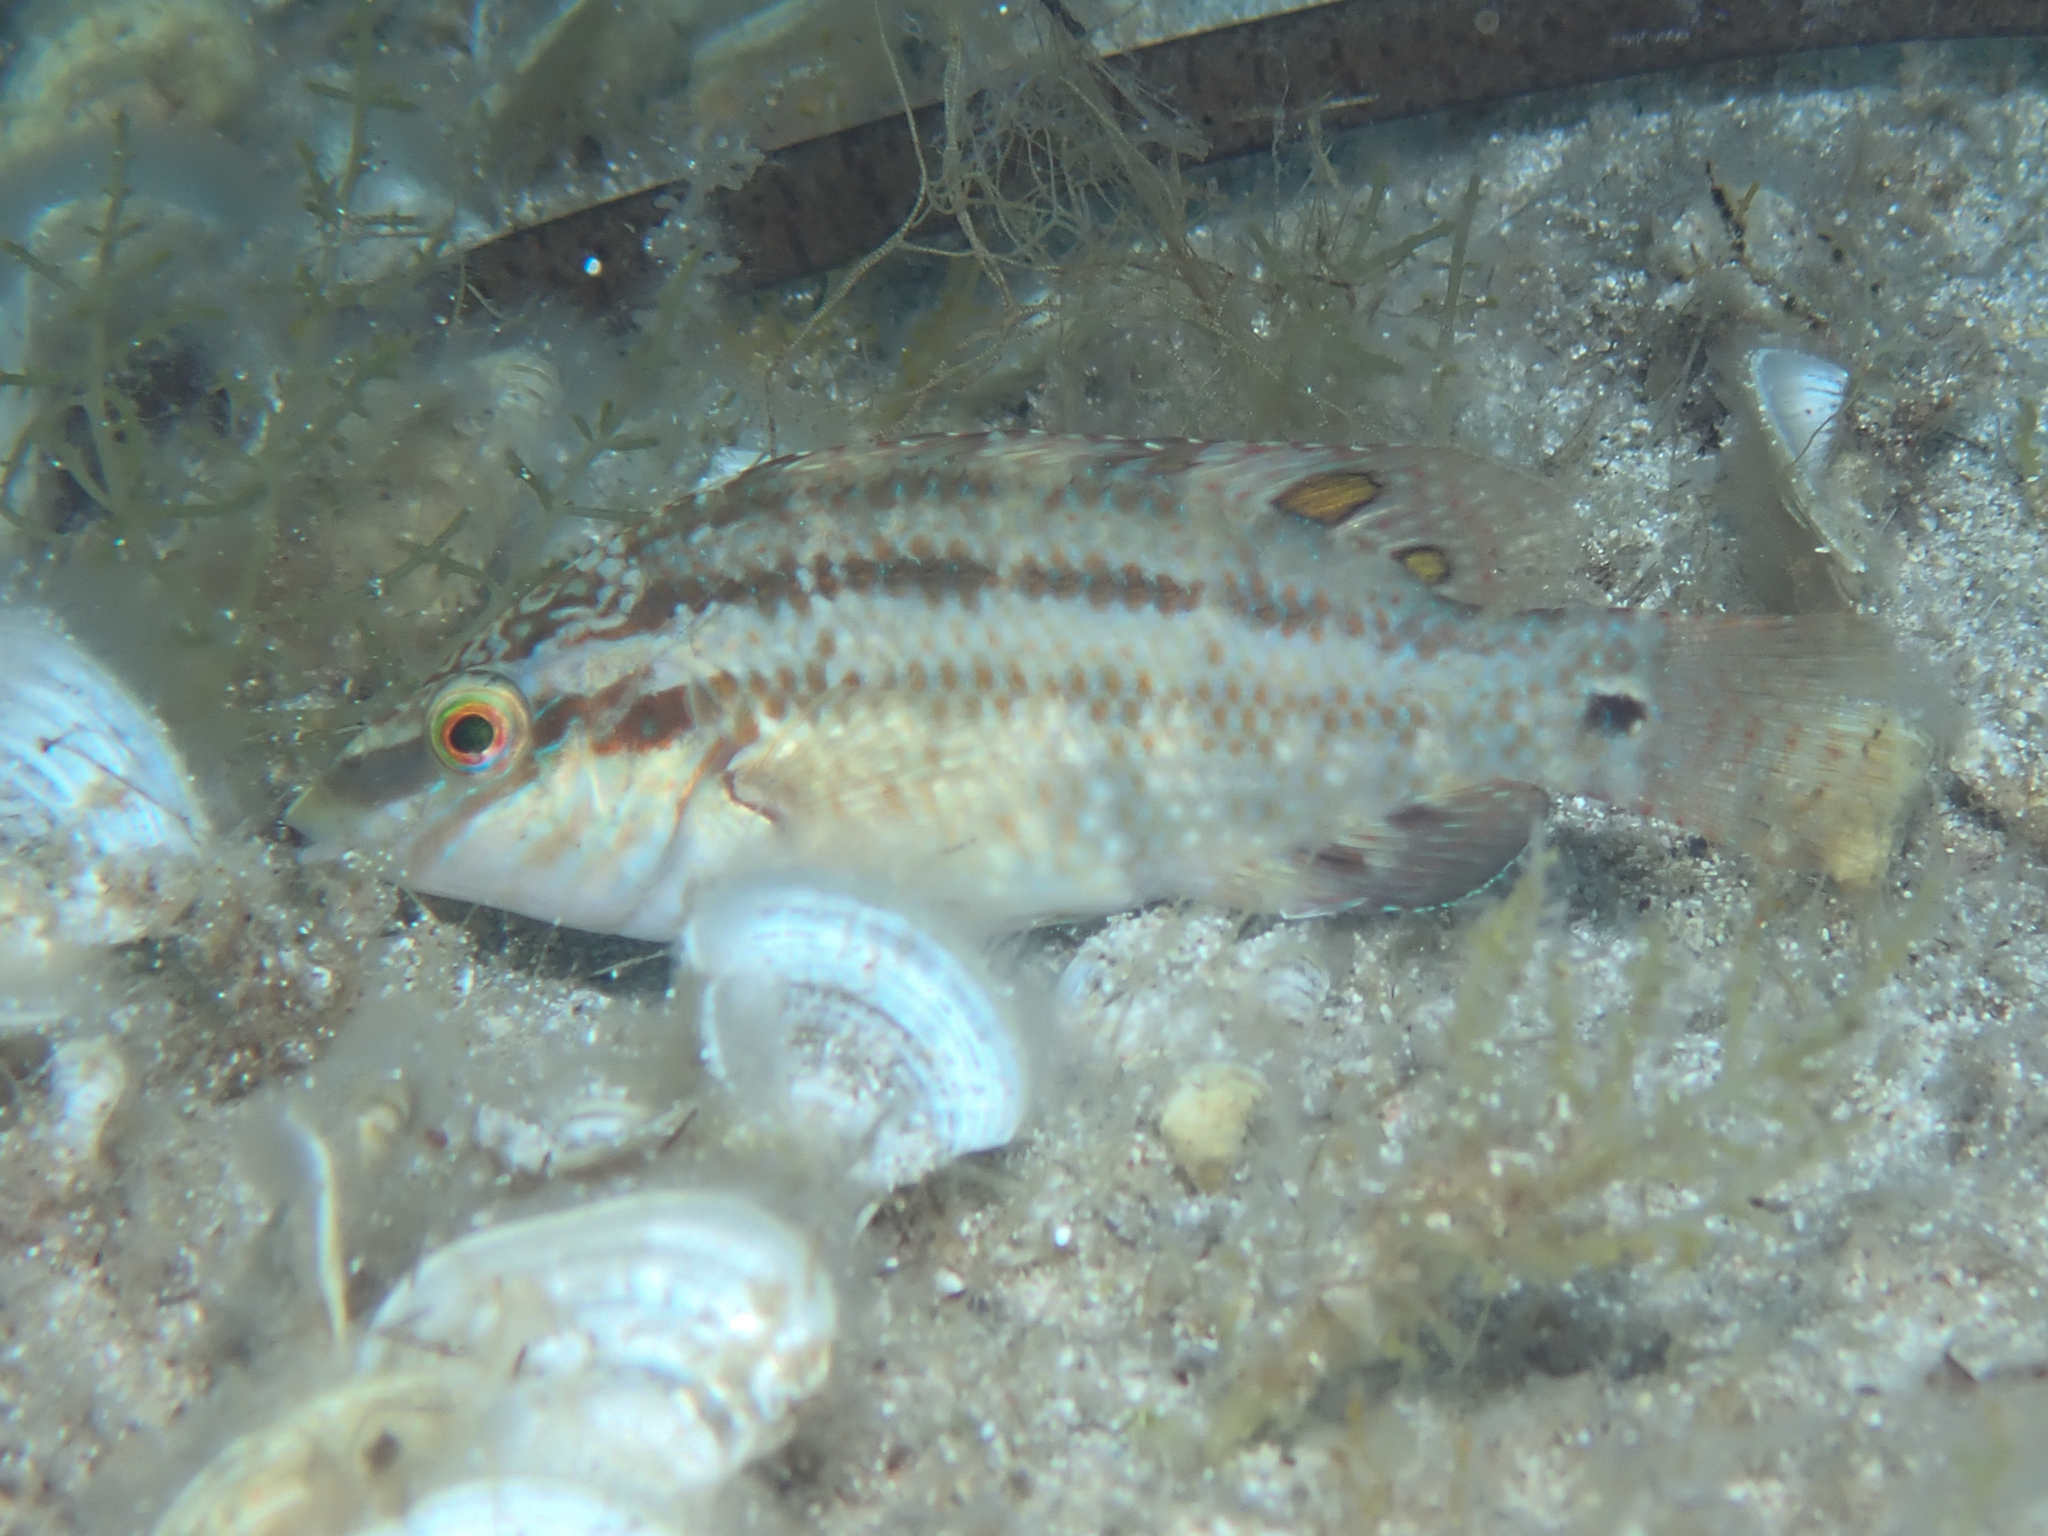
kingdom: Animalia
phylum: Chordata
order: Perciformes
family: Labridae
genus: Symphodus
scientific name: Symphodus roissali
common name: Five-spotted wrasse
